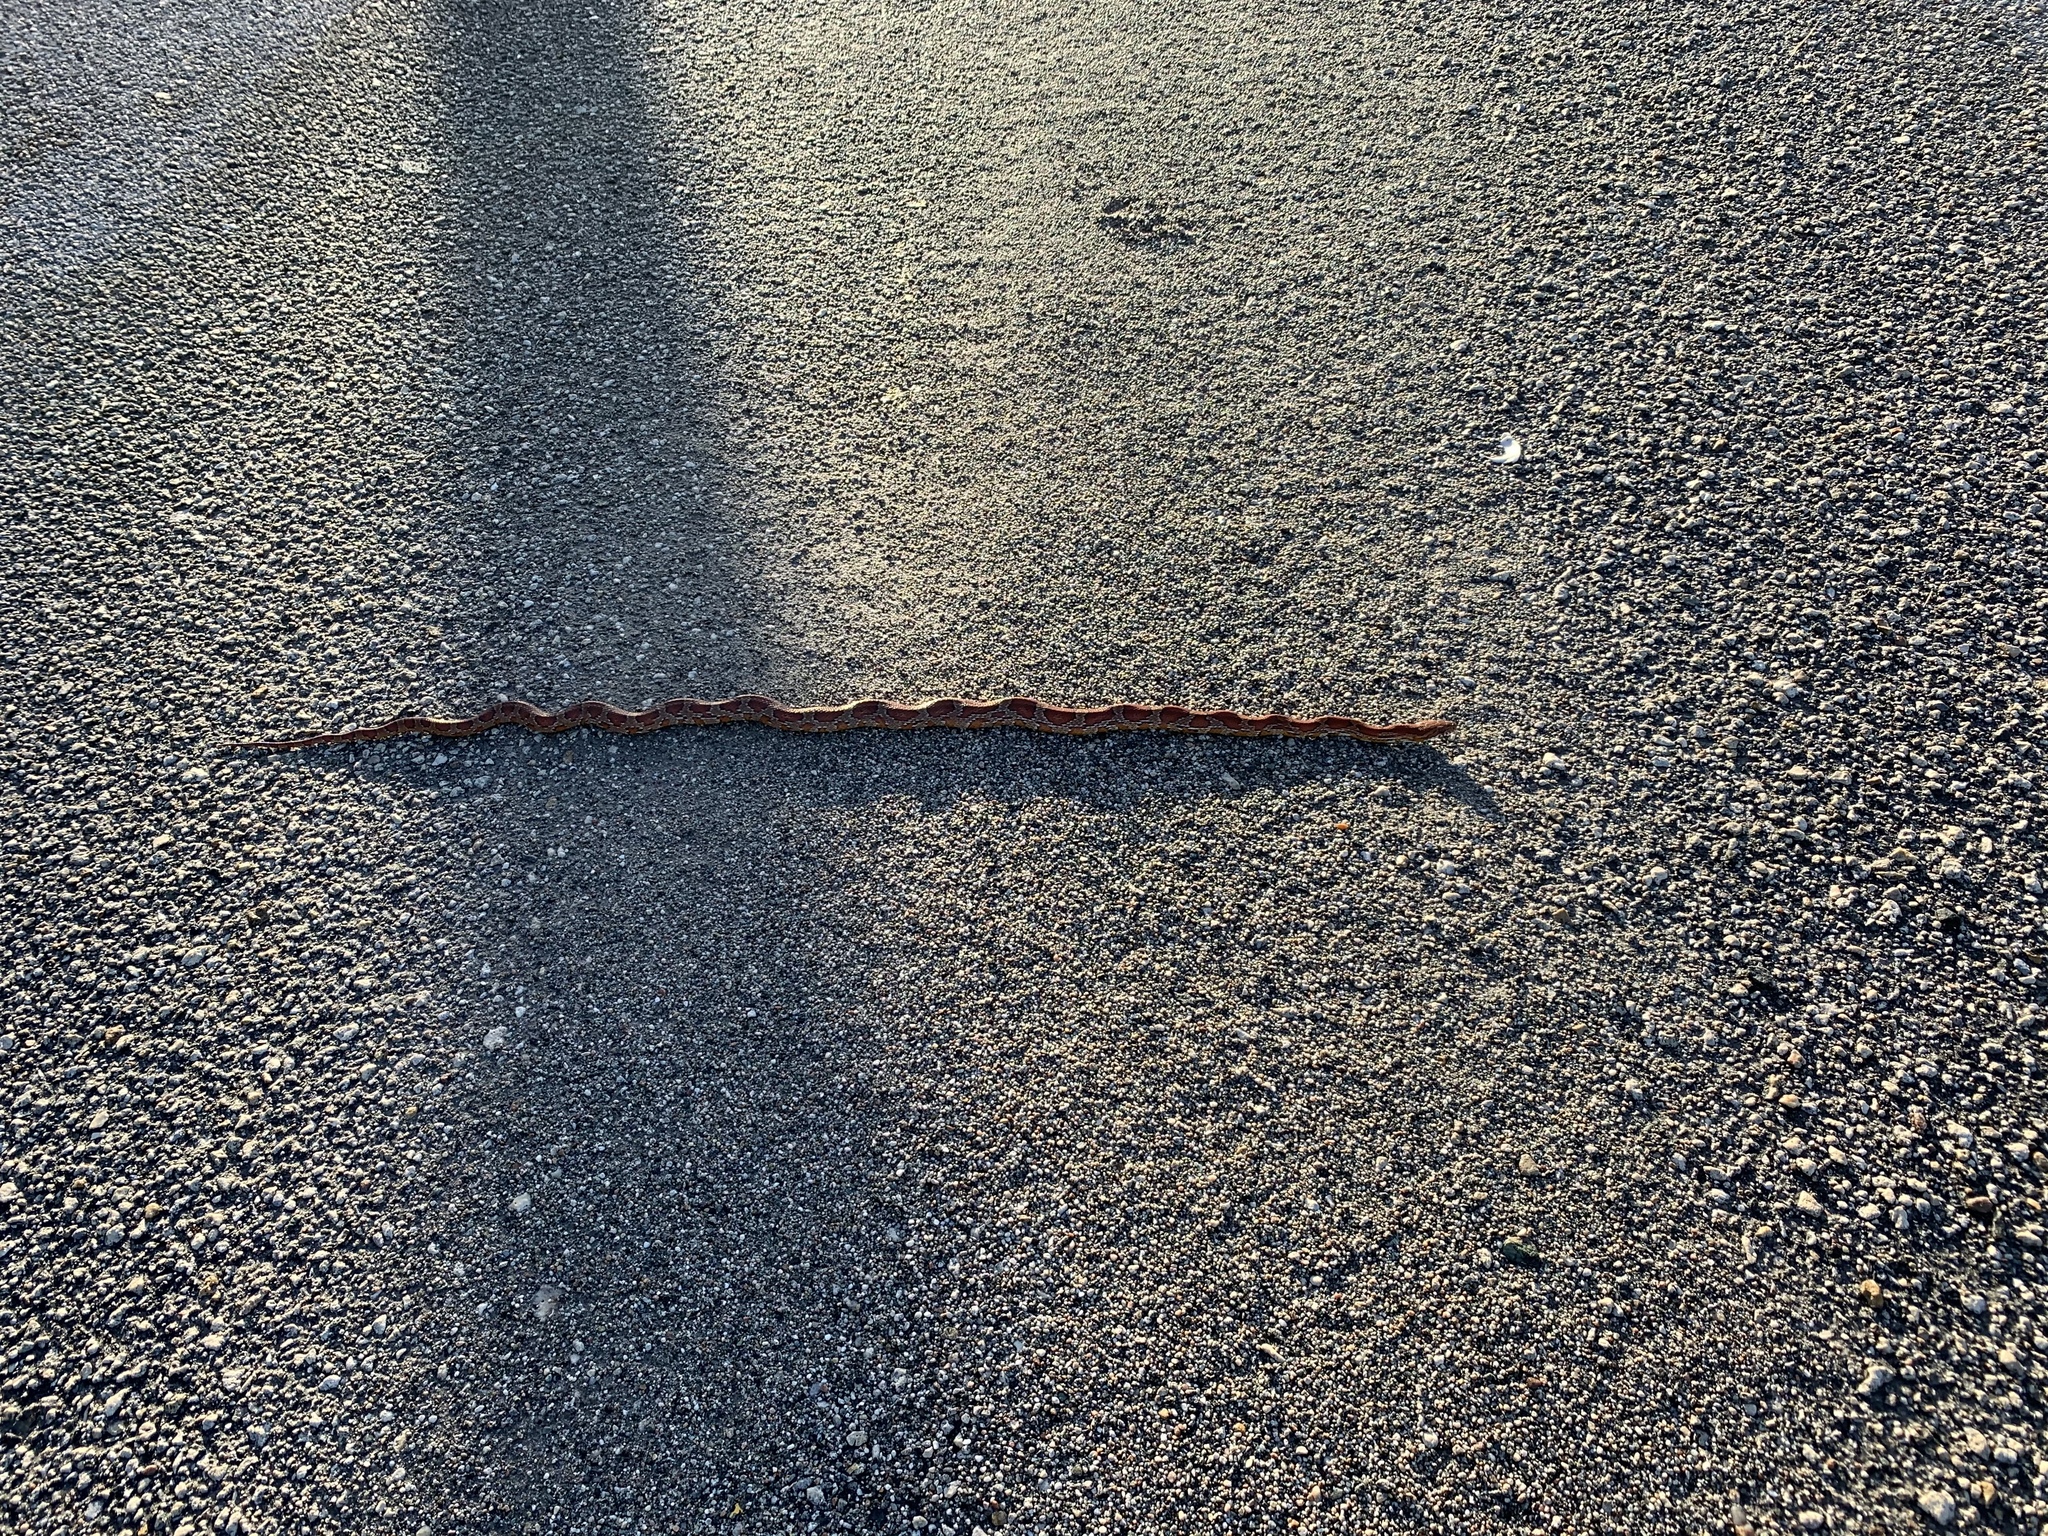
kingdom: Animalia
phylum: Chordata
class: Squamata
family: Colubridae
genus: Pantherophis
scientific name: Pantherophis guttatus
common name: Red cornsnake
